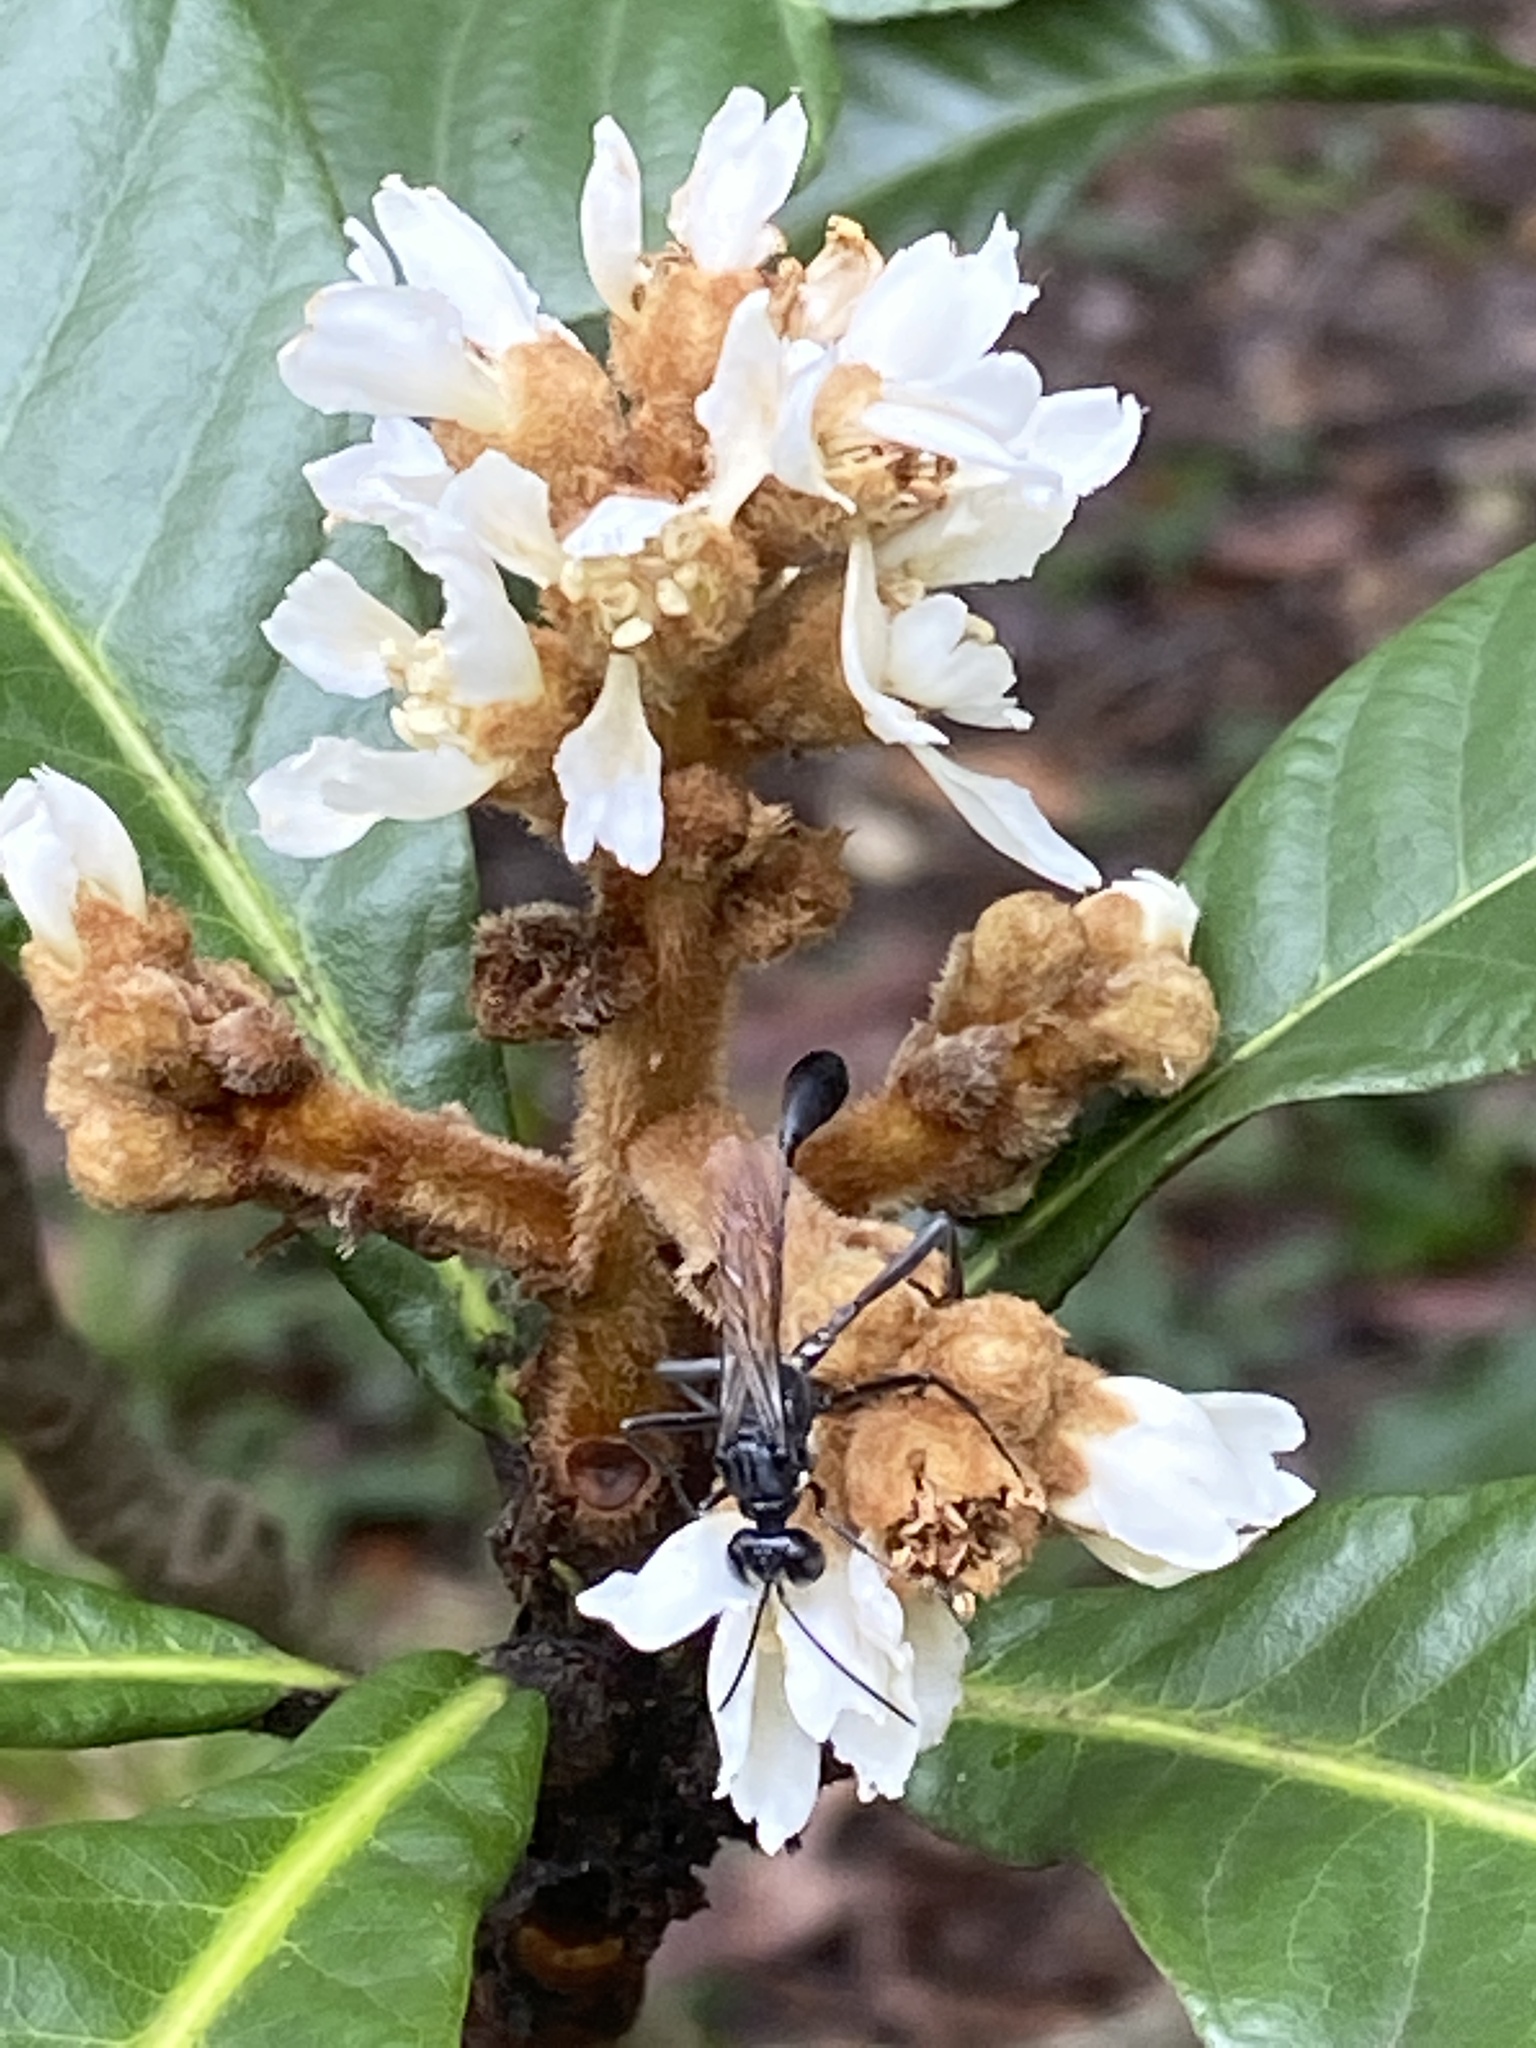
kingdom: Animalia
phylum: Arthropoda
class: Insecta
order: Hymenoptera
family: Sphecidae
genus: Eremnophila
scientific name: Eremnophila aureonotata
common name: Gold-marked thread-waisted wasp
